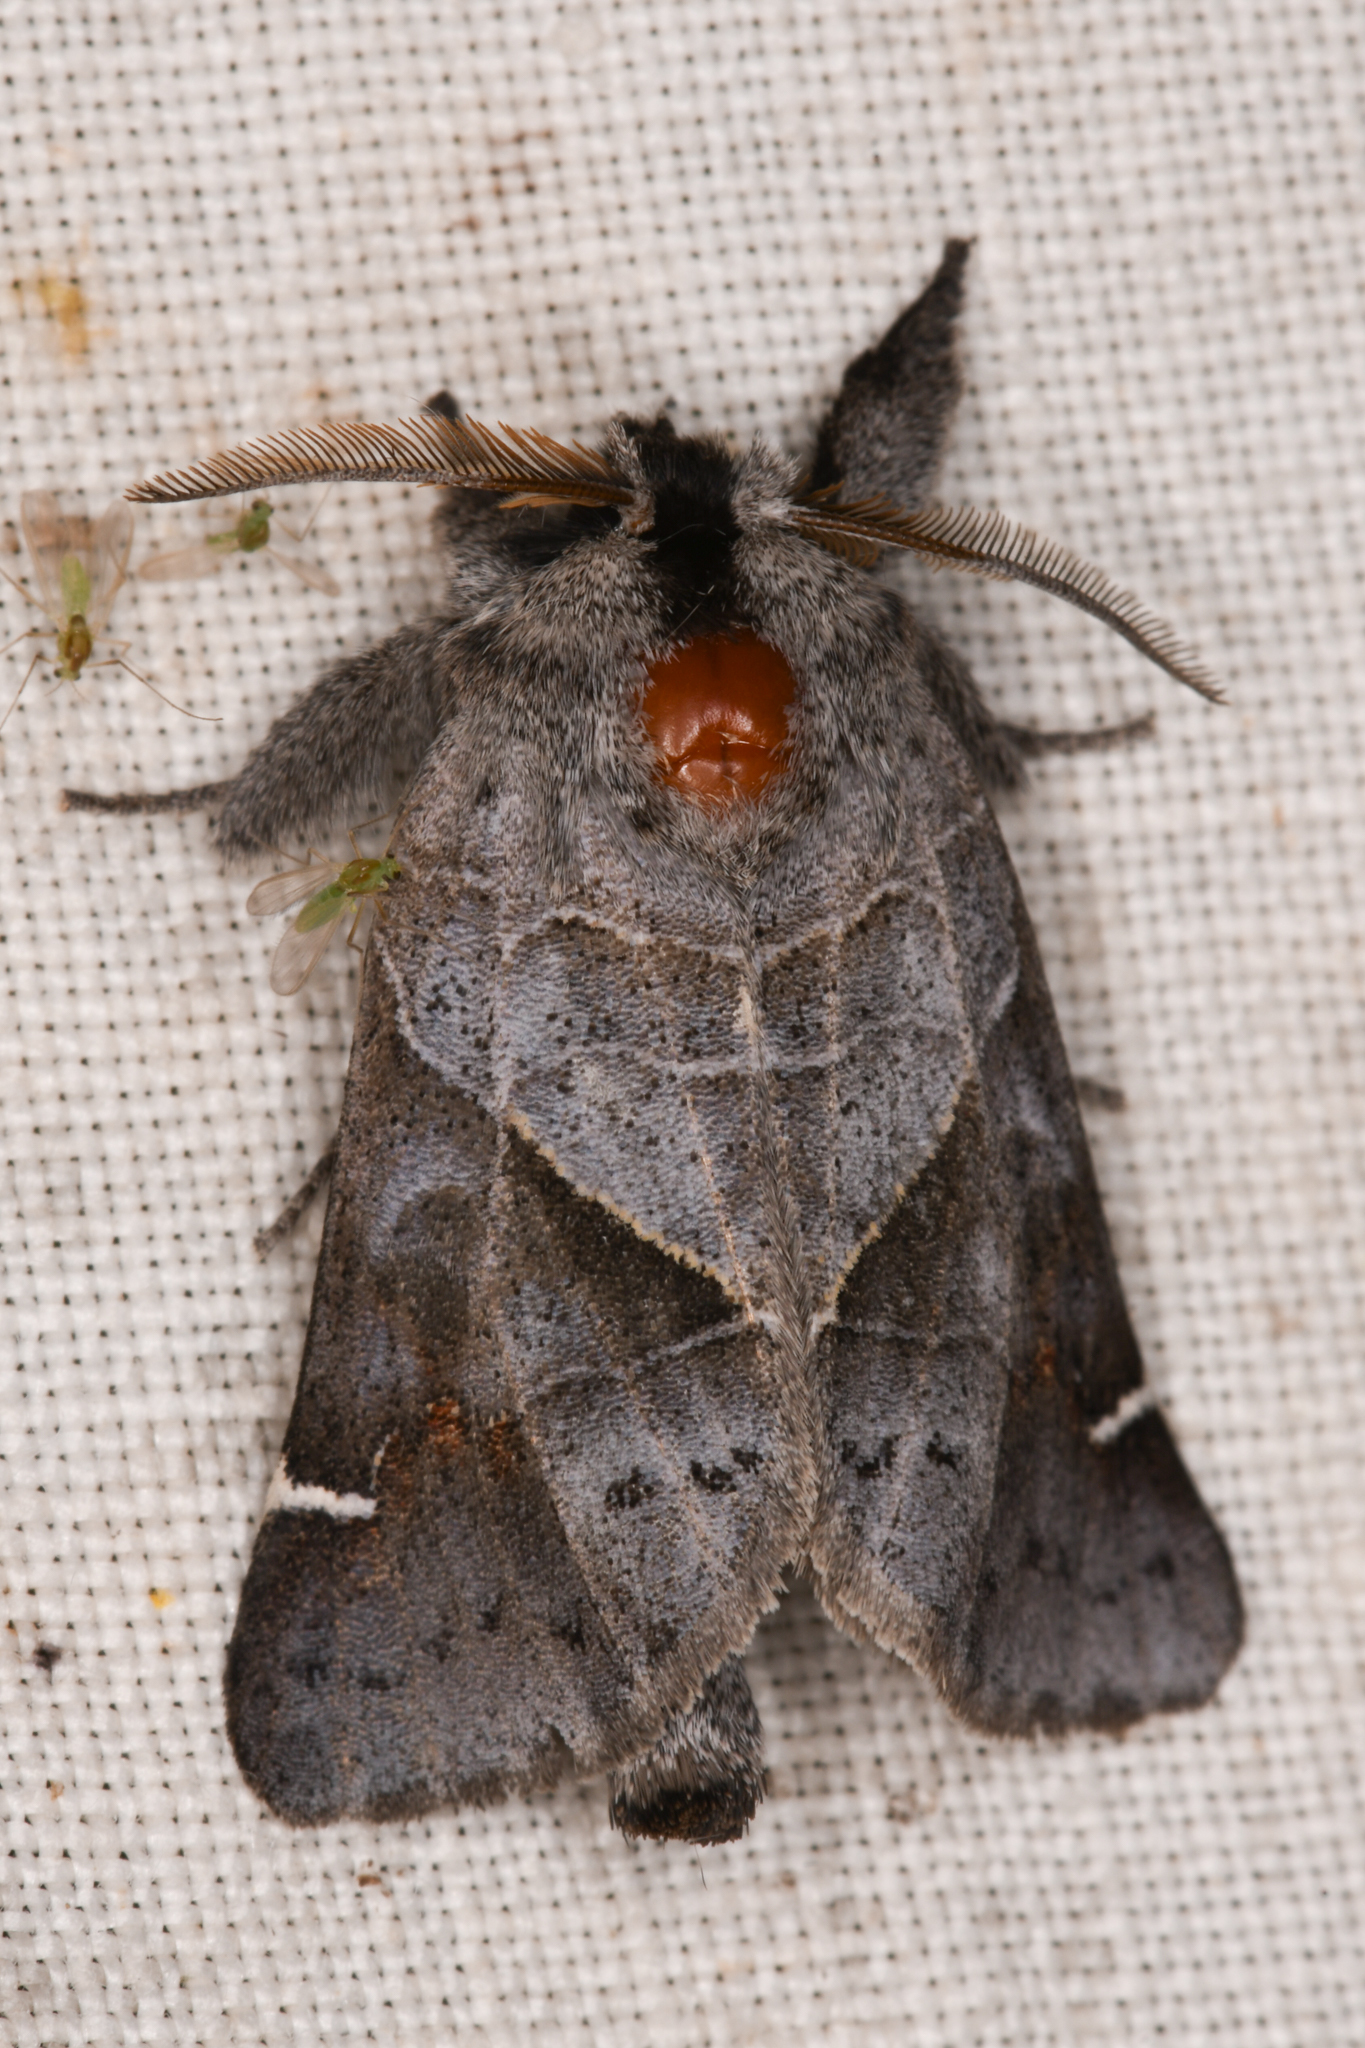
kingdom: Animalia
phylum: Arthropoda
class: Insecta
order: Lepidoptera
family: Notodontidae
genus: Clostera
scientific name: Clostera apicalis
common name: Apical prominent
